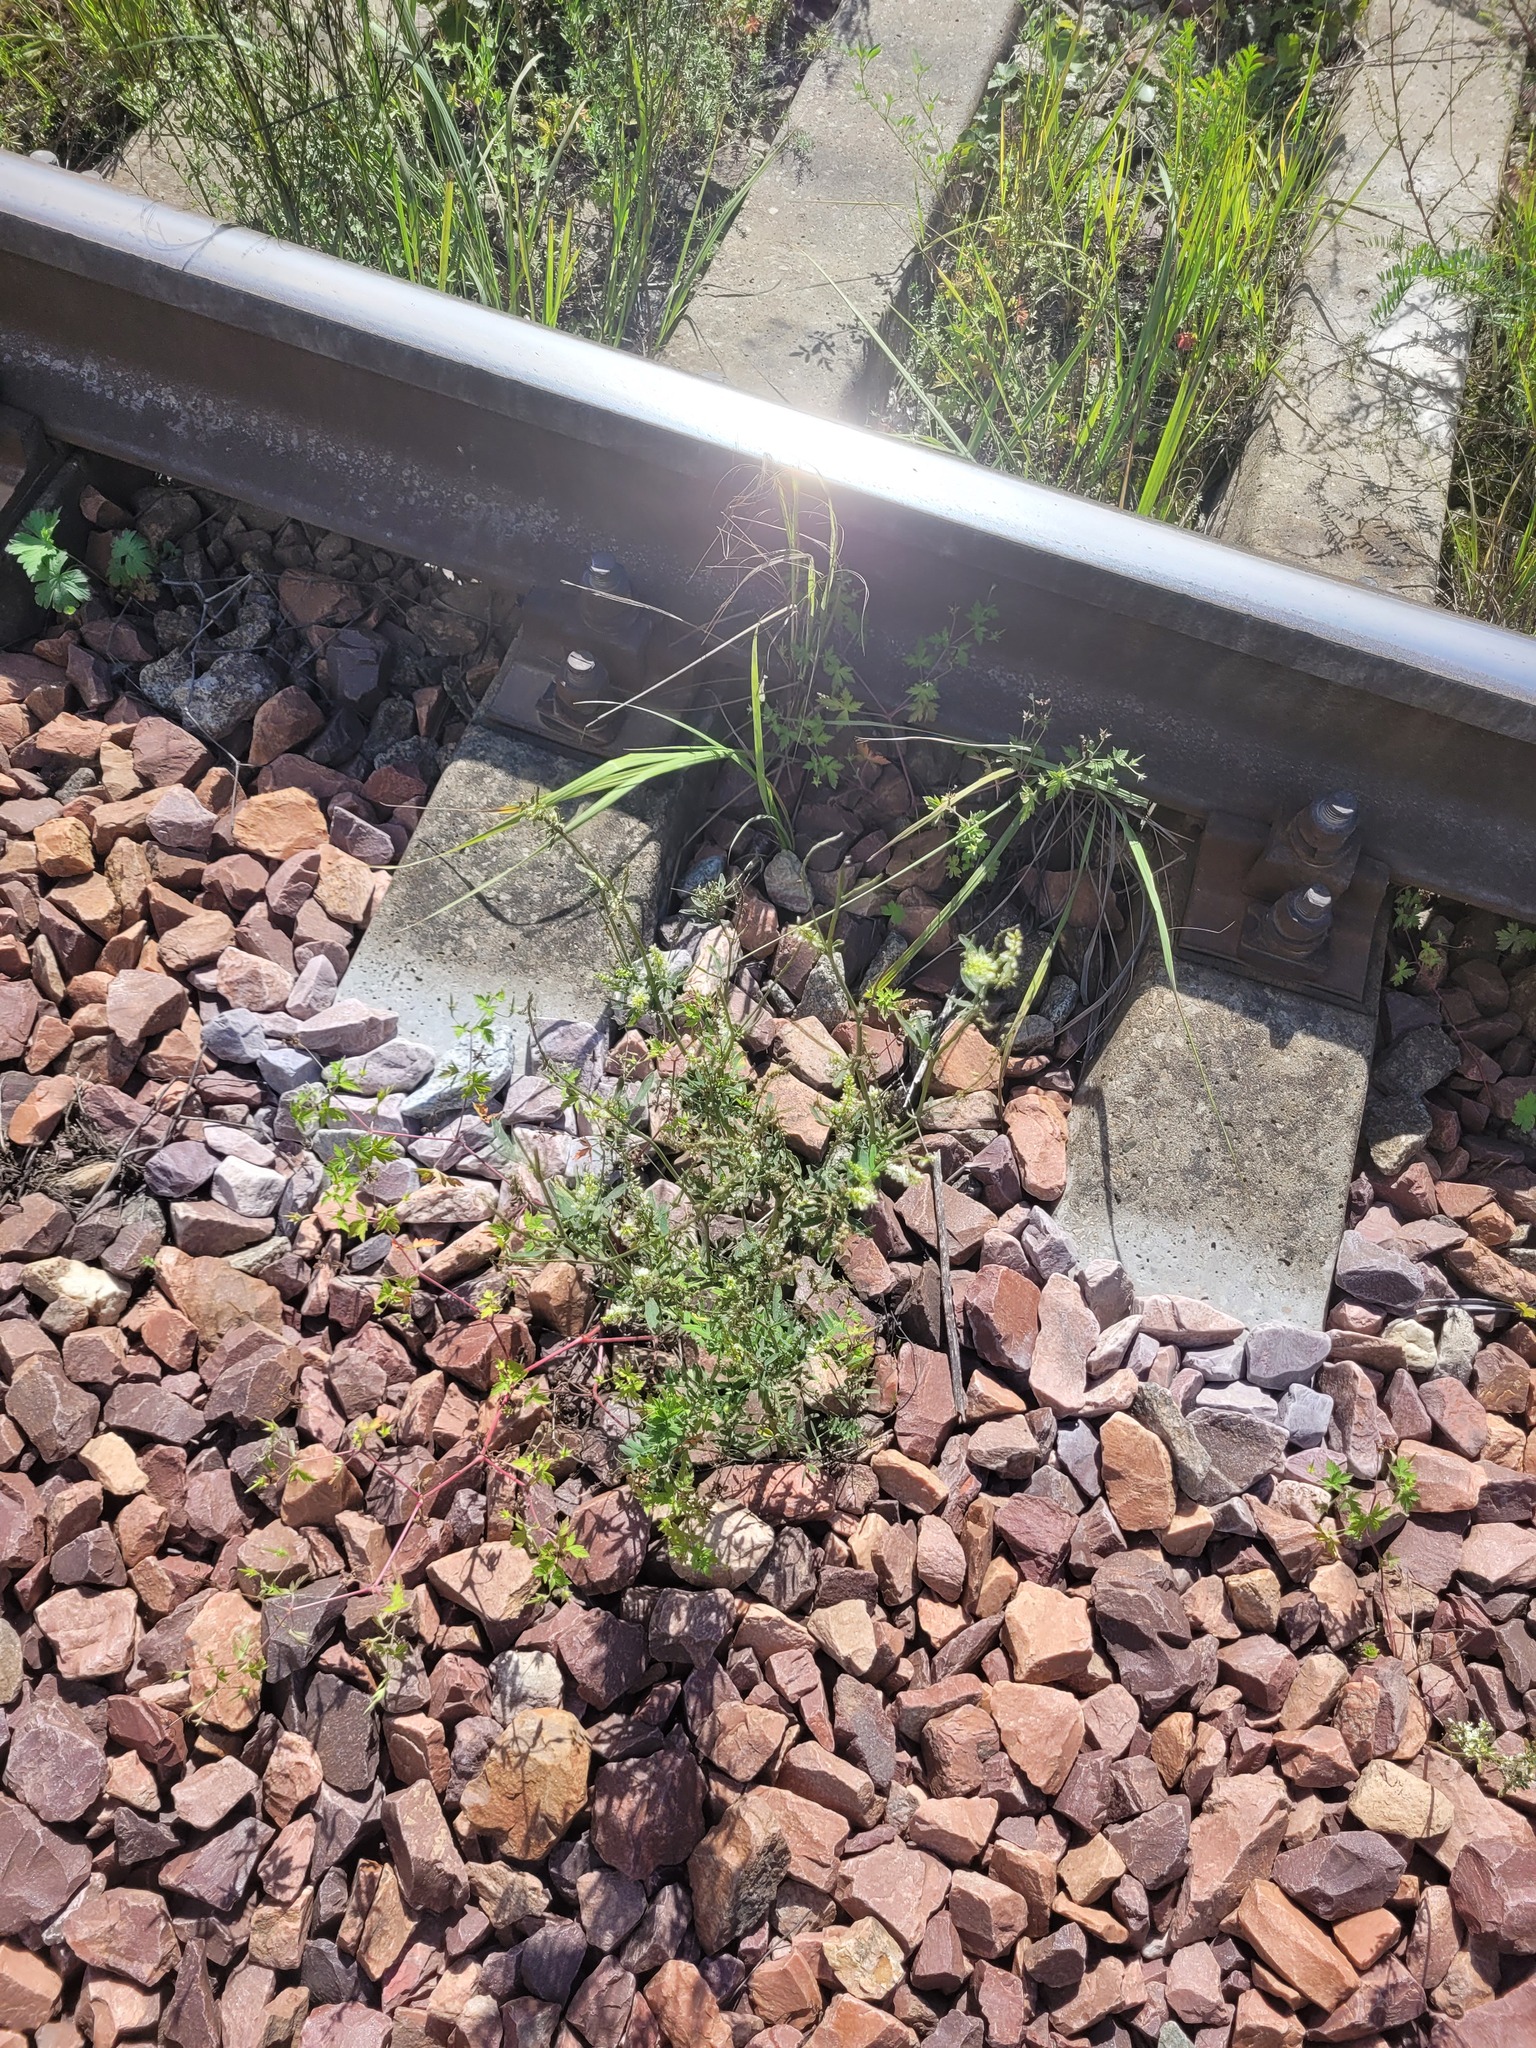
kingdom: Plantae
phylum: Tracheophyta
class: Magnoliopsida
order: Fabales
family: Fabaceae
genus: Melilotus
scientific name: Melilotus albus
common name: White melilot
